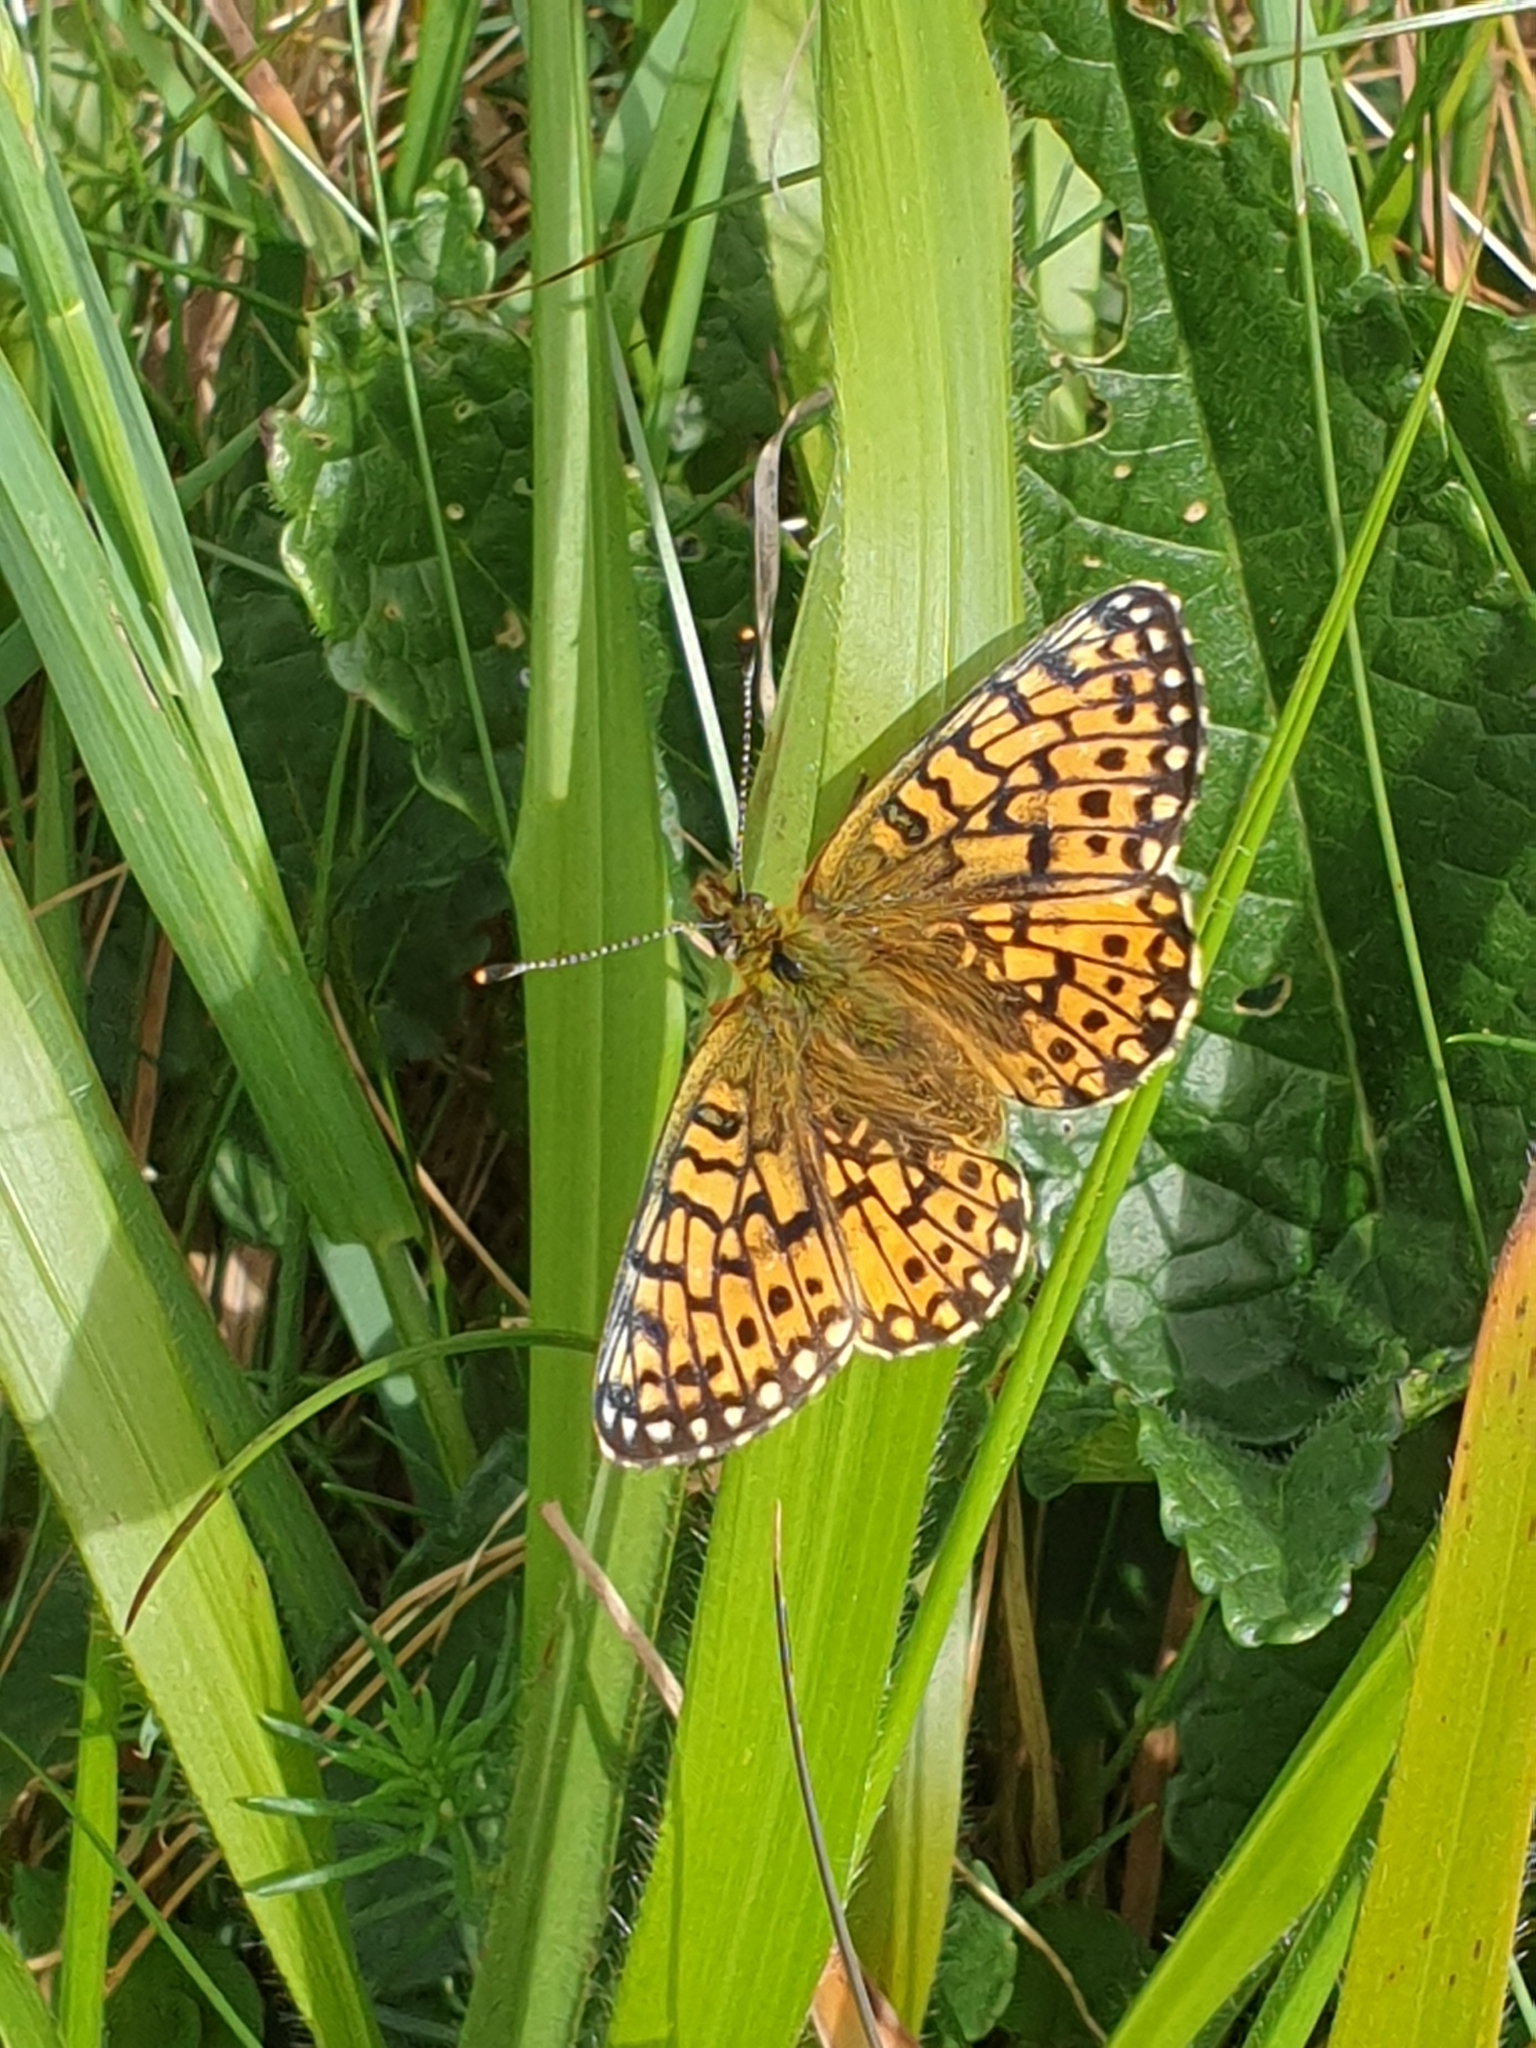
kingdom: Animalia
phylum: Arthropoda
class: Insecta
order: Lepidoptera
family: Nymphalidae
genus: Boloria
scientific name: Boloria selene
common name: Small pearl-bordered fritillary
